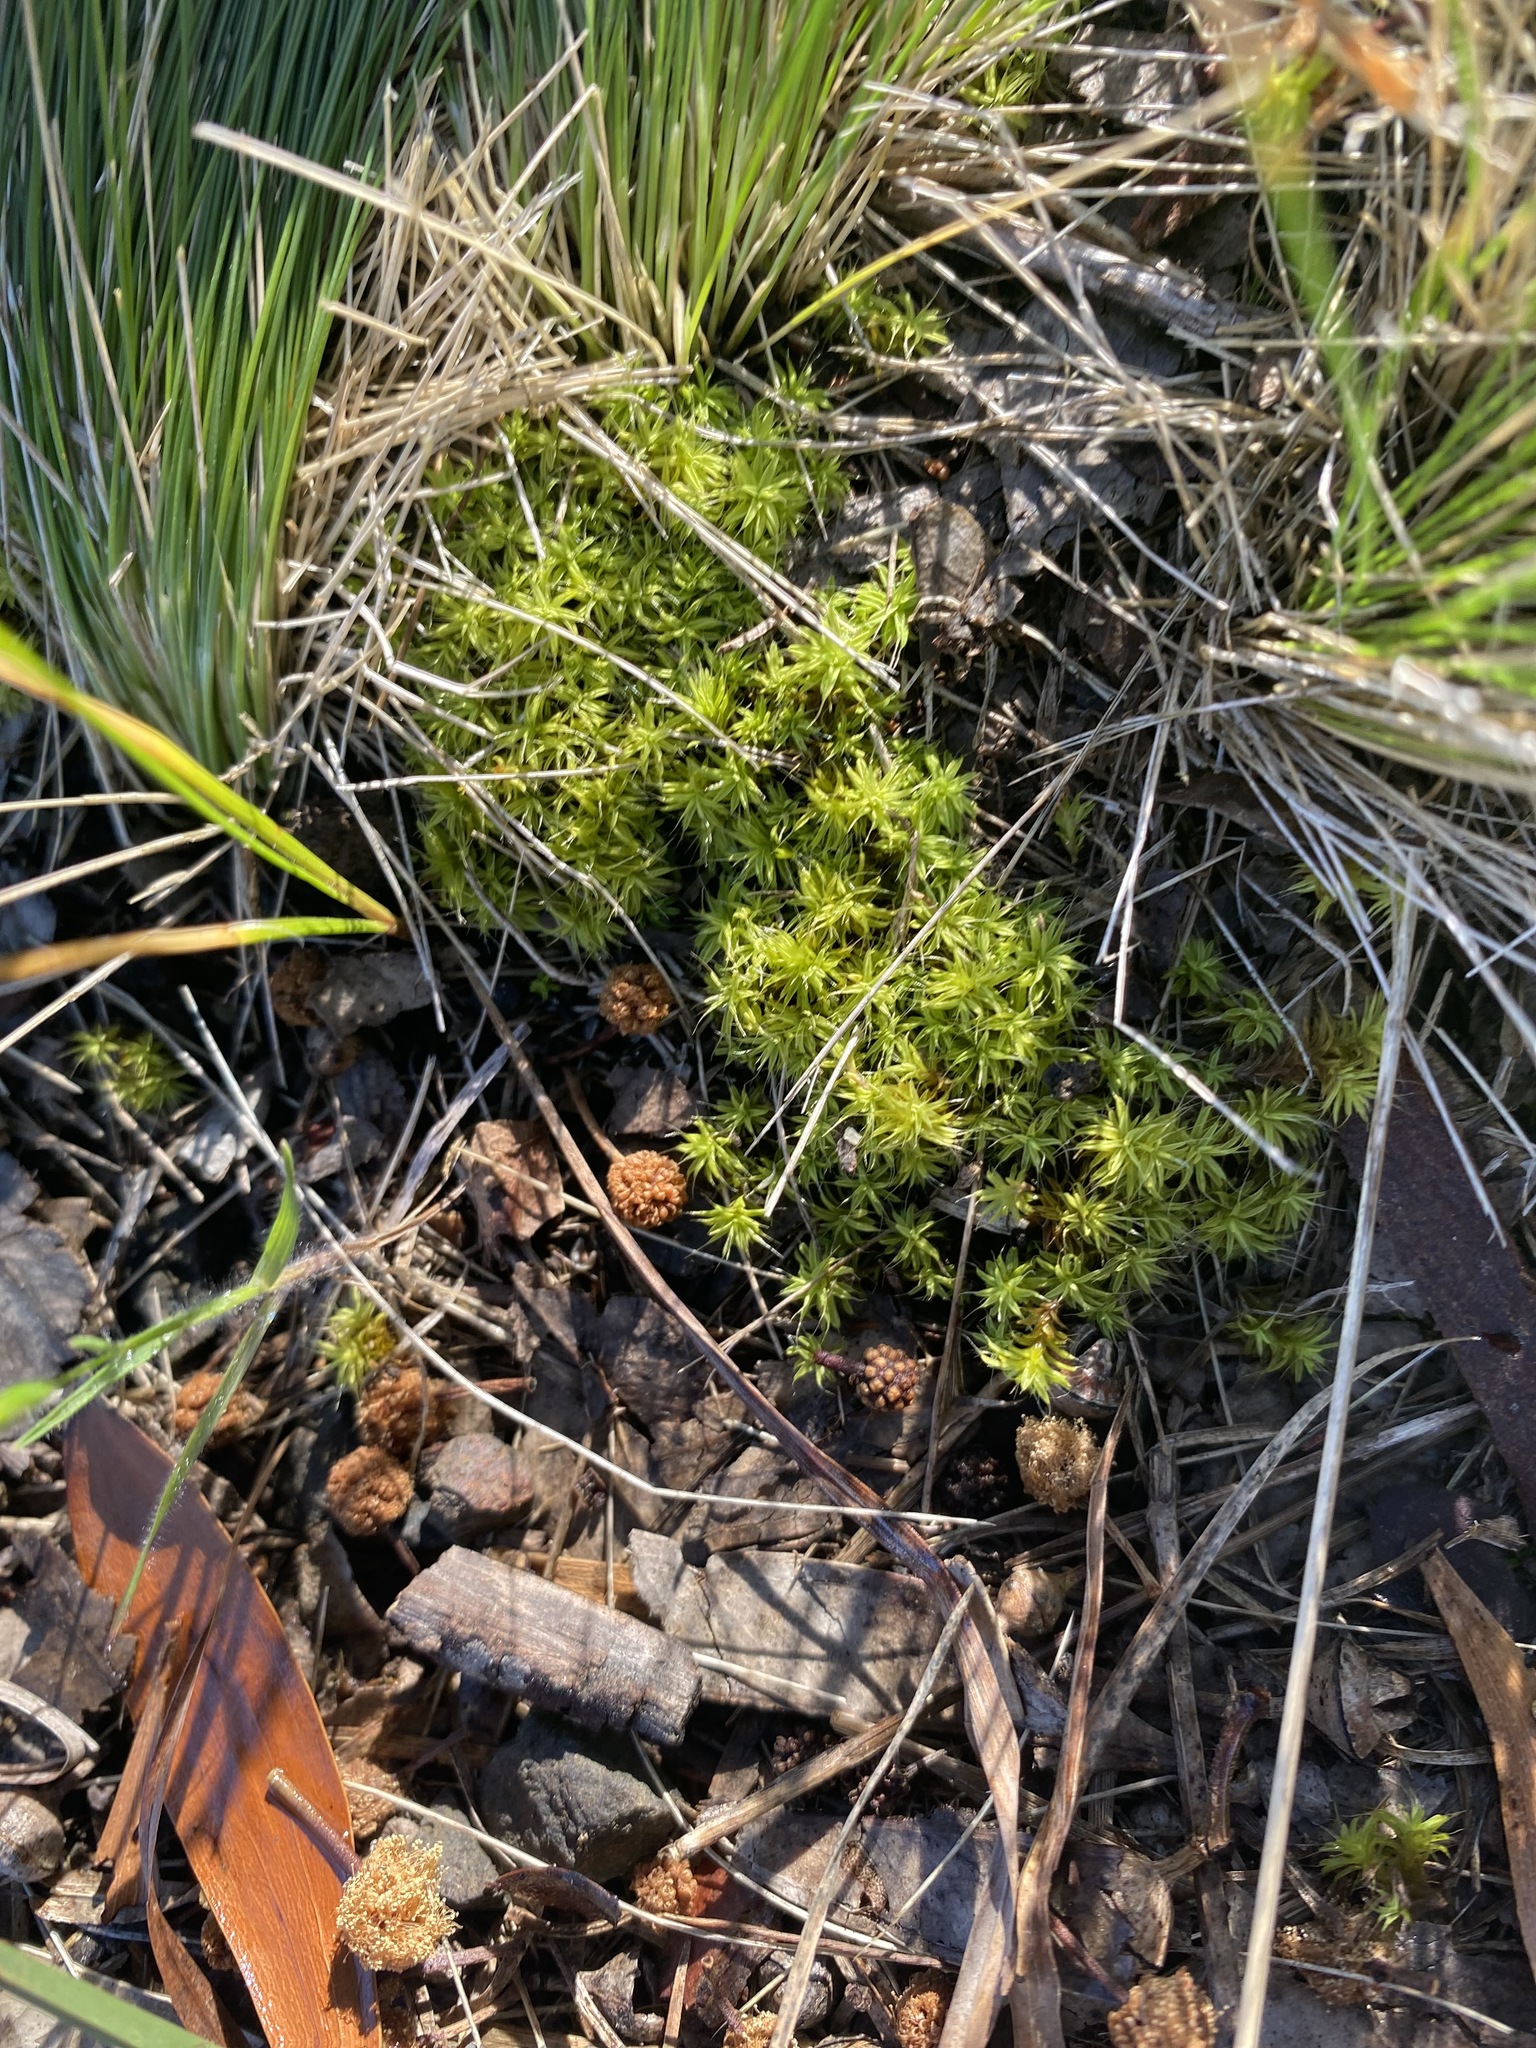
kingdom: Plantae
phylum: Bryophyta
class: Bryopsida
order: Pottiales
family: Pottiaceae
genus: Pseudocrossidium
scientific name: Pseudocrossidium crinitum
